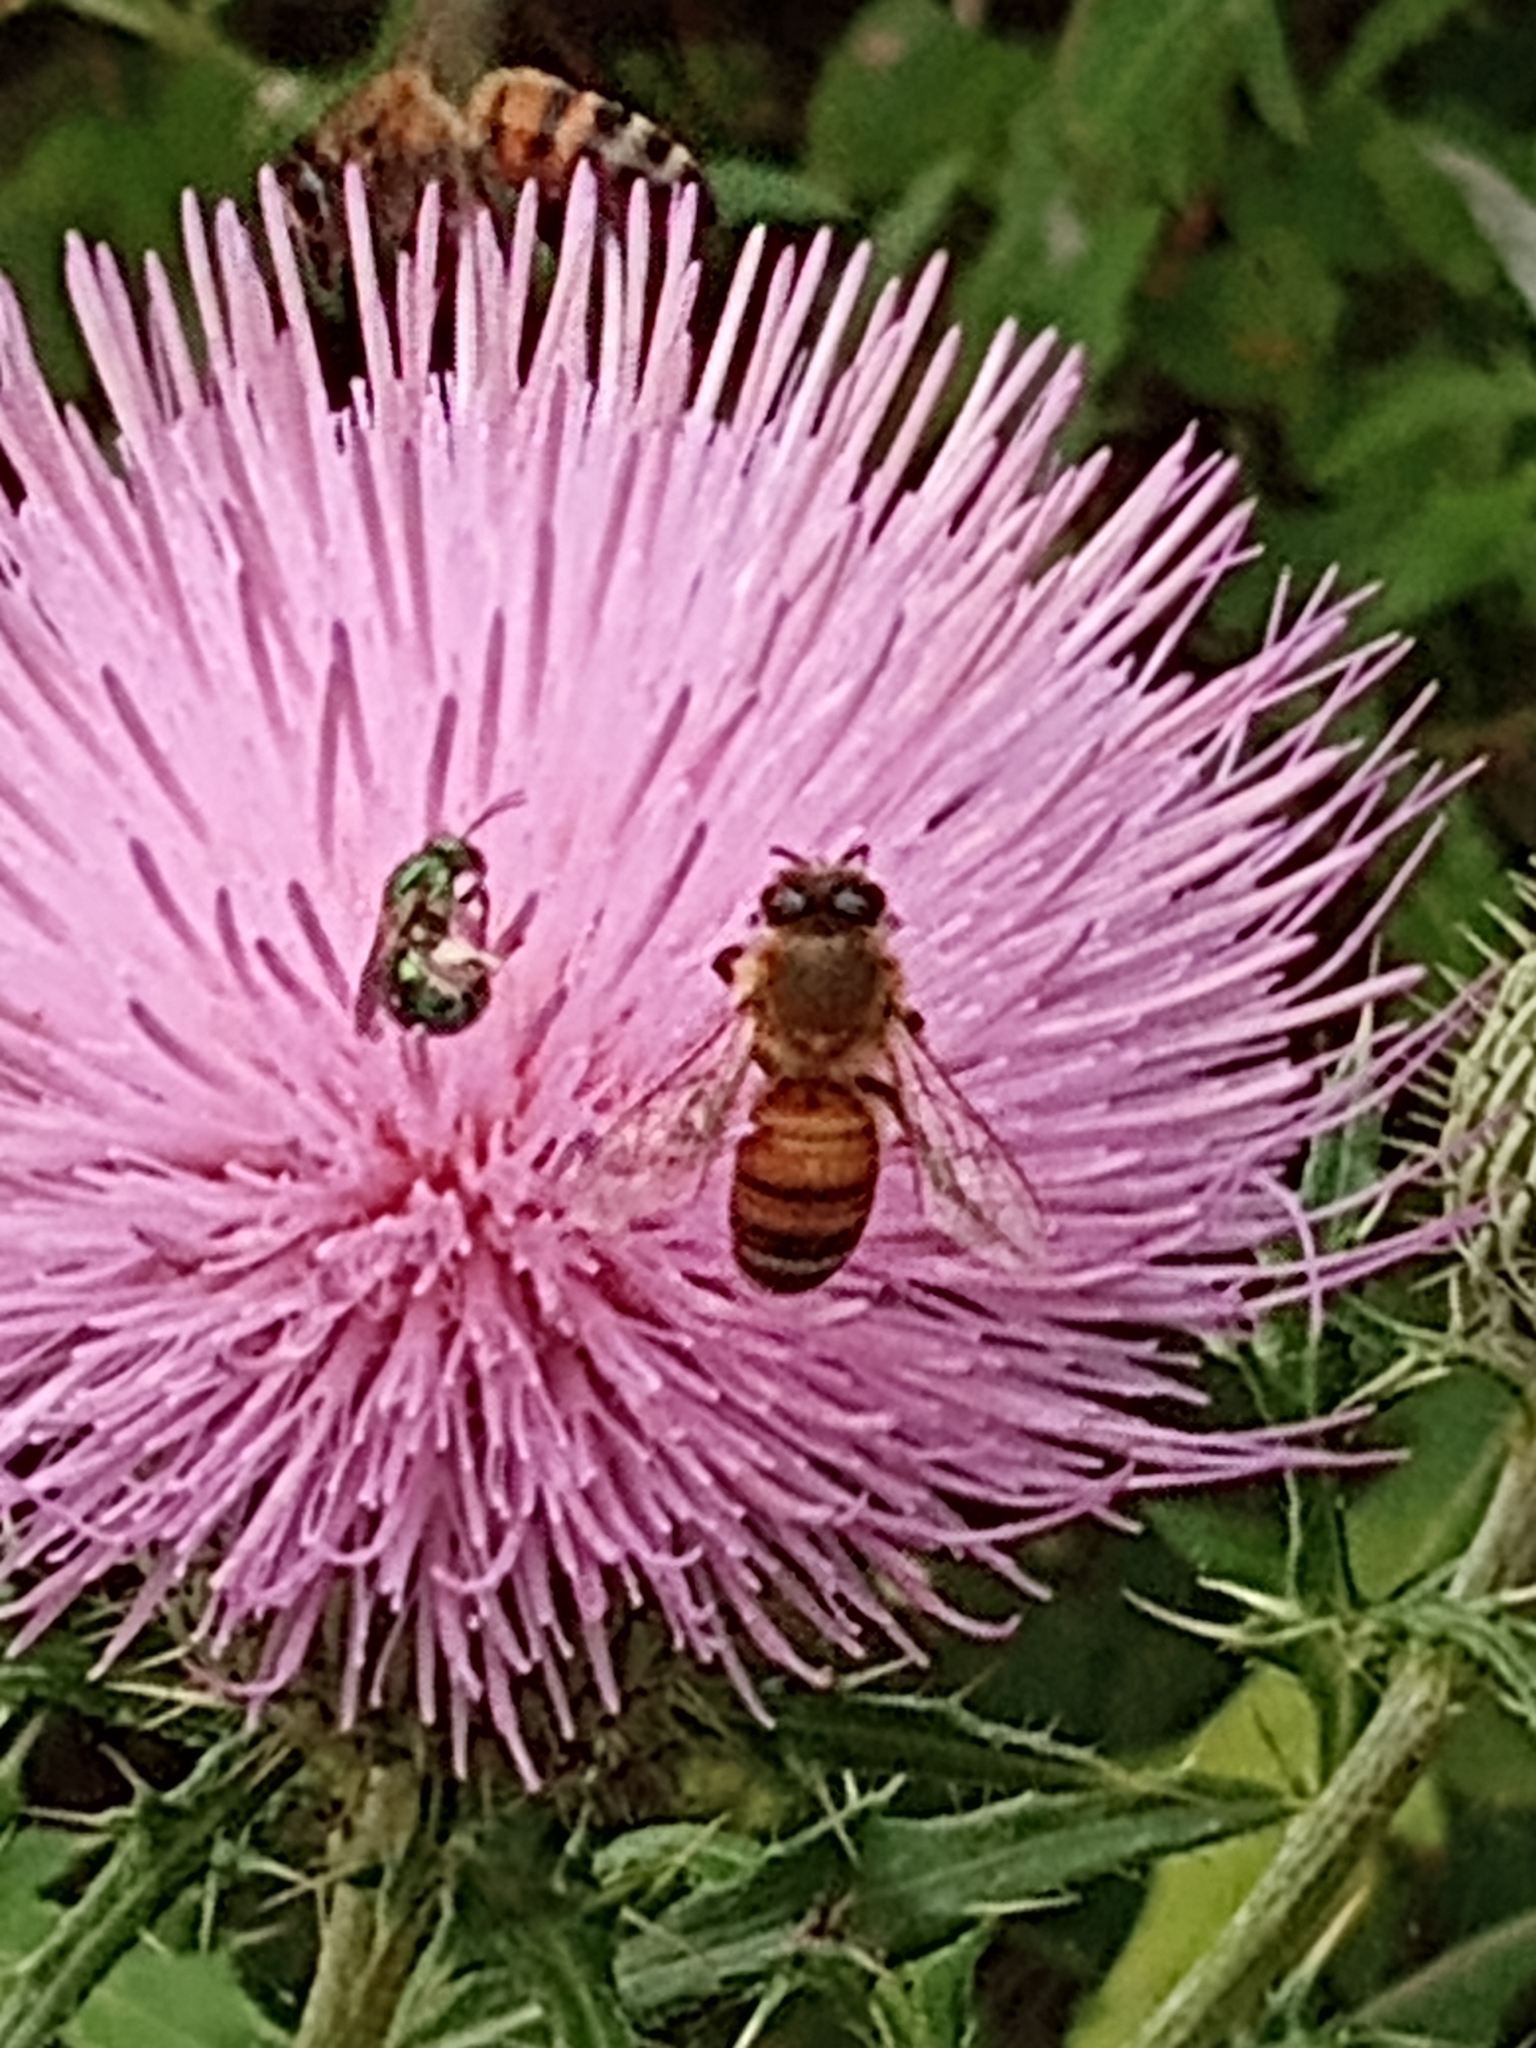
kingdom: Animalia
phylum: Arthropoda
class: Insecta
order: Hymenoptera
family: Apidae
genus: Apis
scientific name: Apis mellifera
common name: Honey bee
